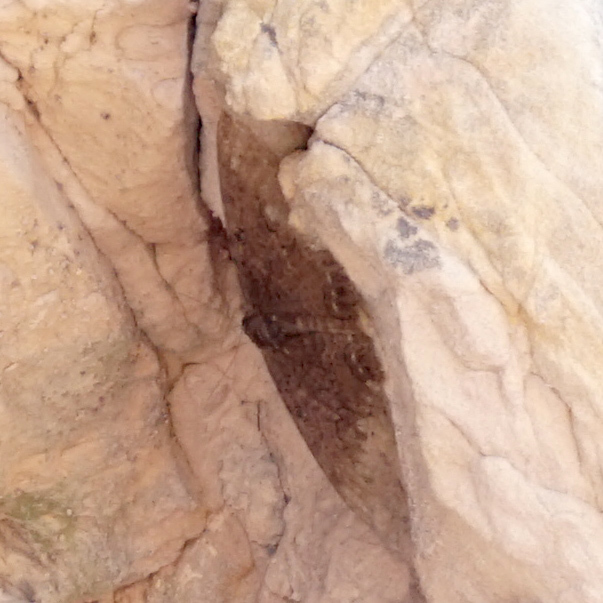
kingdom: Animalia
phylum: Arthropoda
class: Insecta
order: Lepidoptera
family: Erebidae
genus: Ascalapha
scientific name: Ascalapha odorata
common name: Black witch
